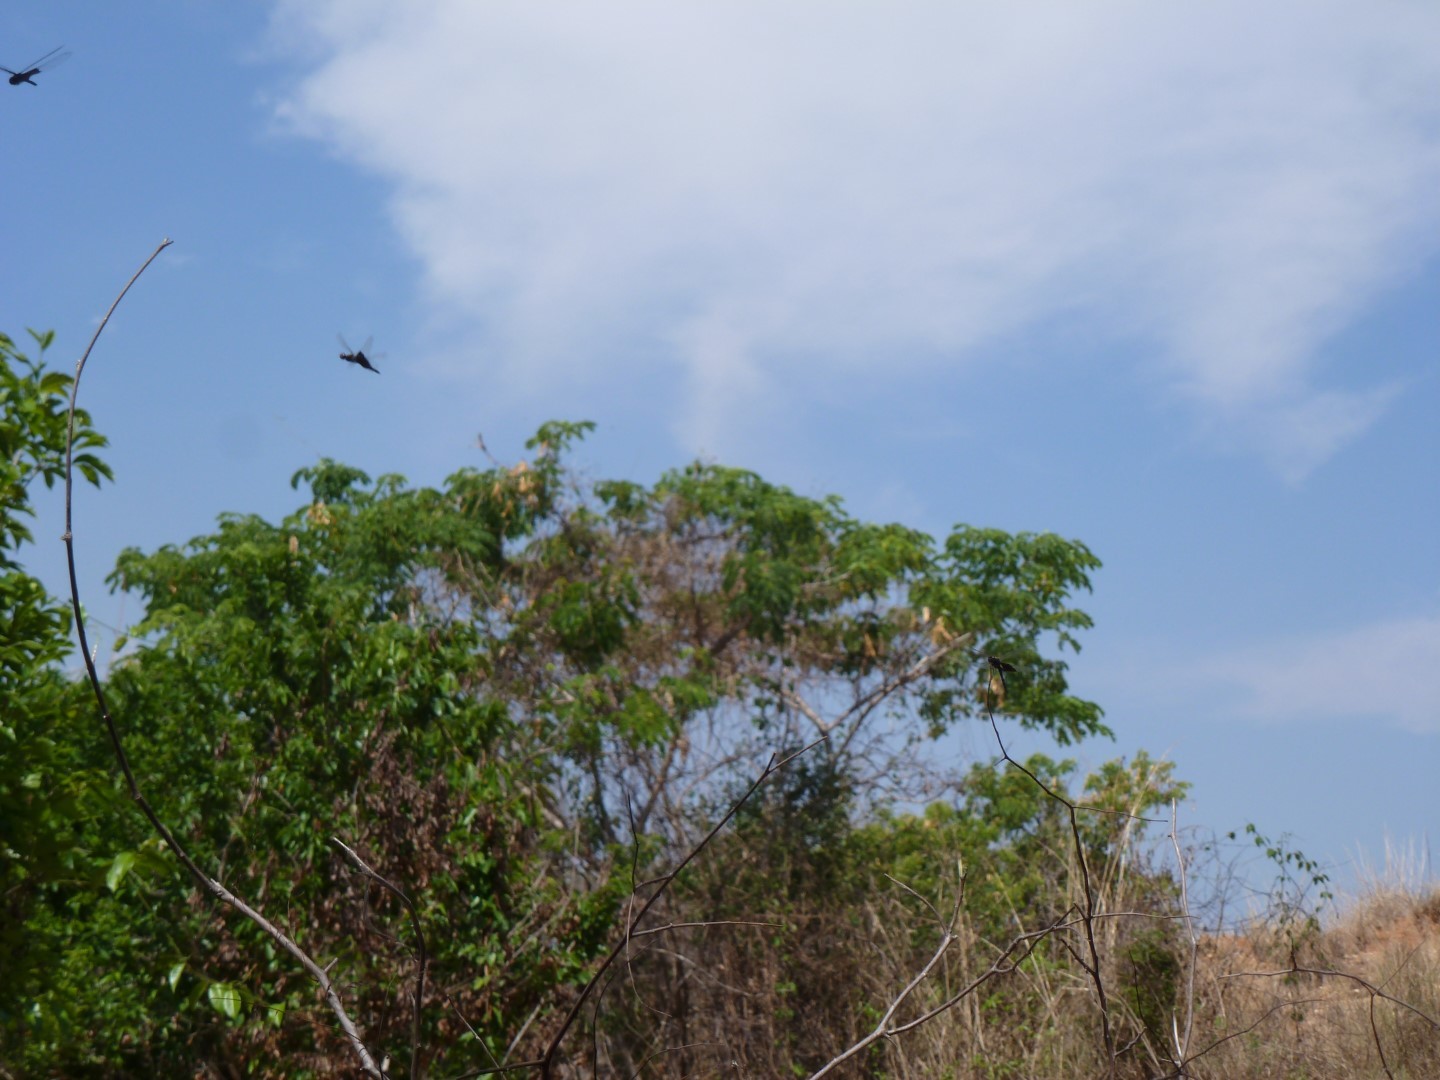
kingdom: Animalia
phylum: Arthropoda
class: Insecta
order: Odonata
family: Libellulidae
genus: Rhyothemis
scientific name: Rhyothemis semihyalina
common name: Phantom flutterer
